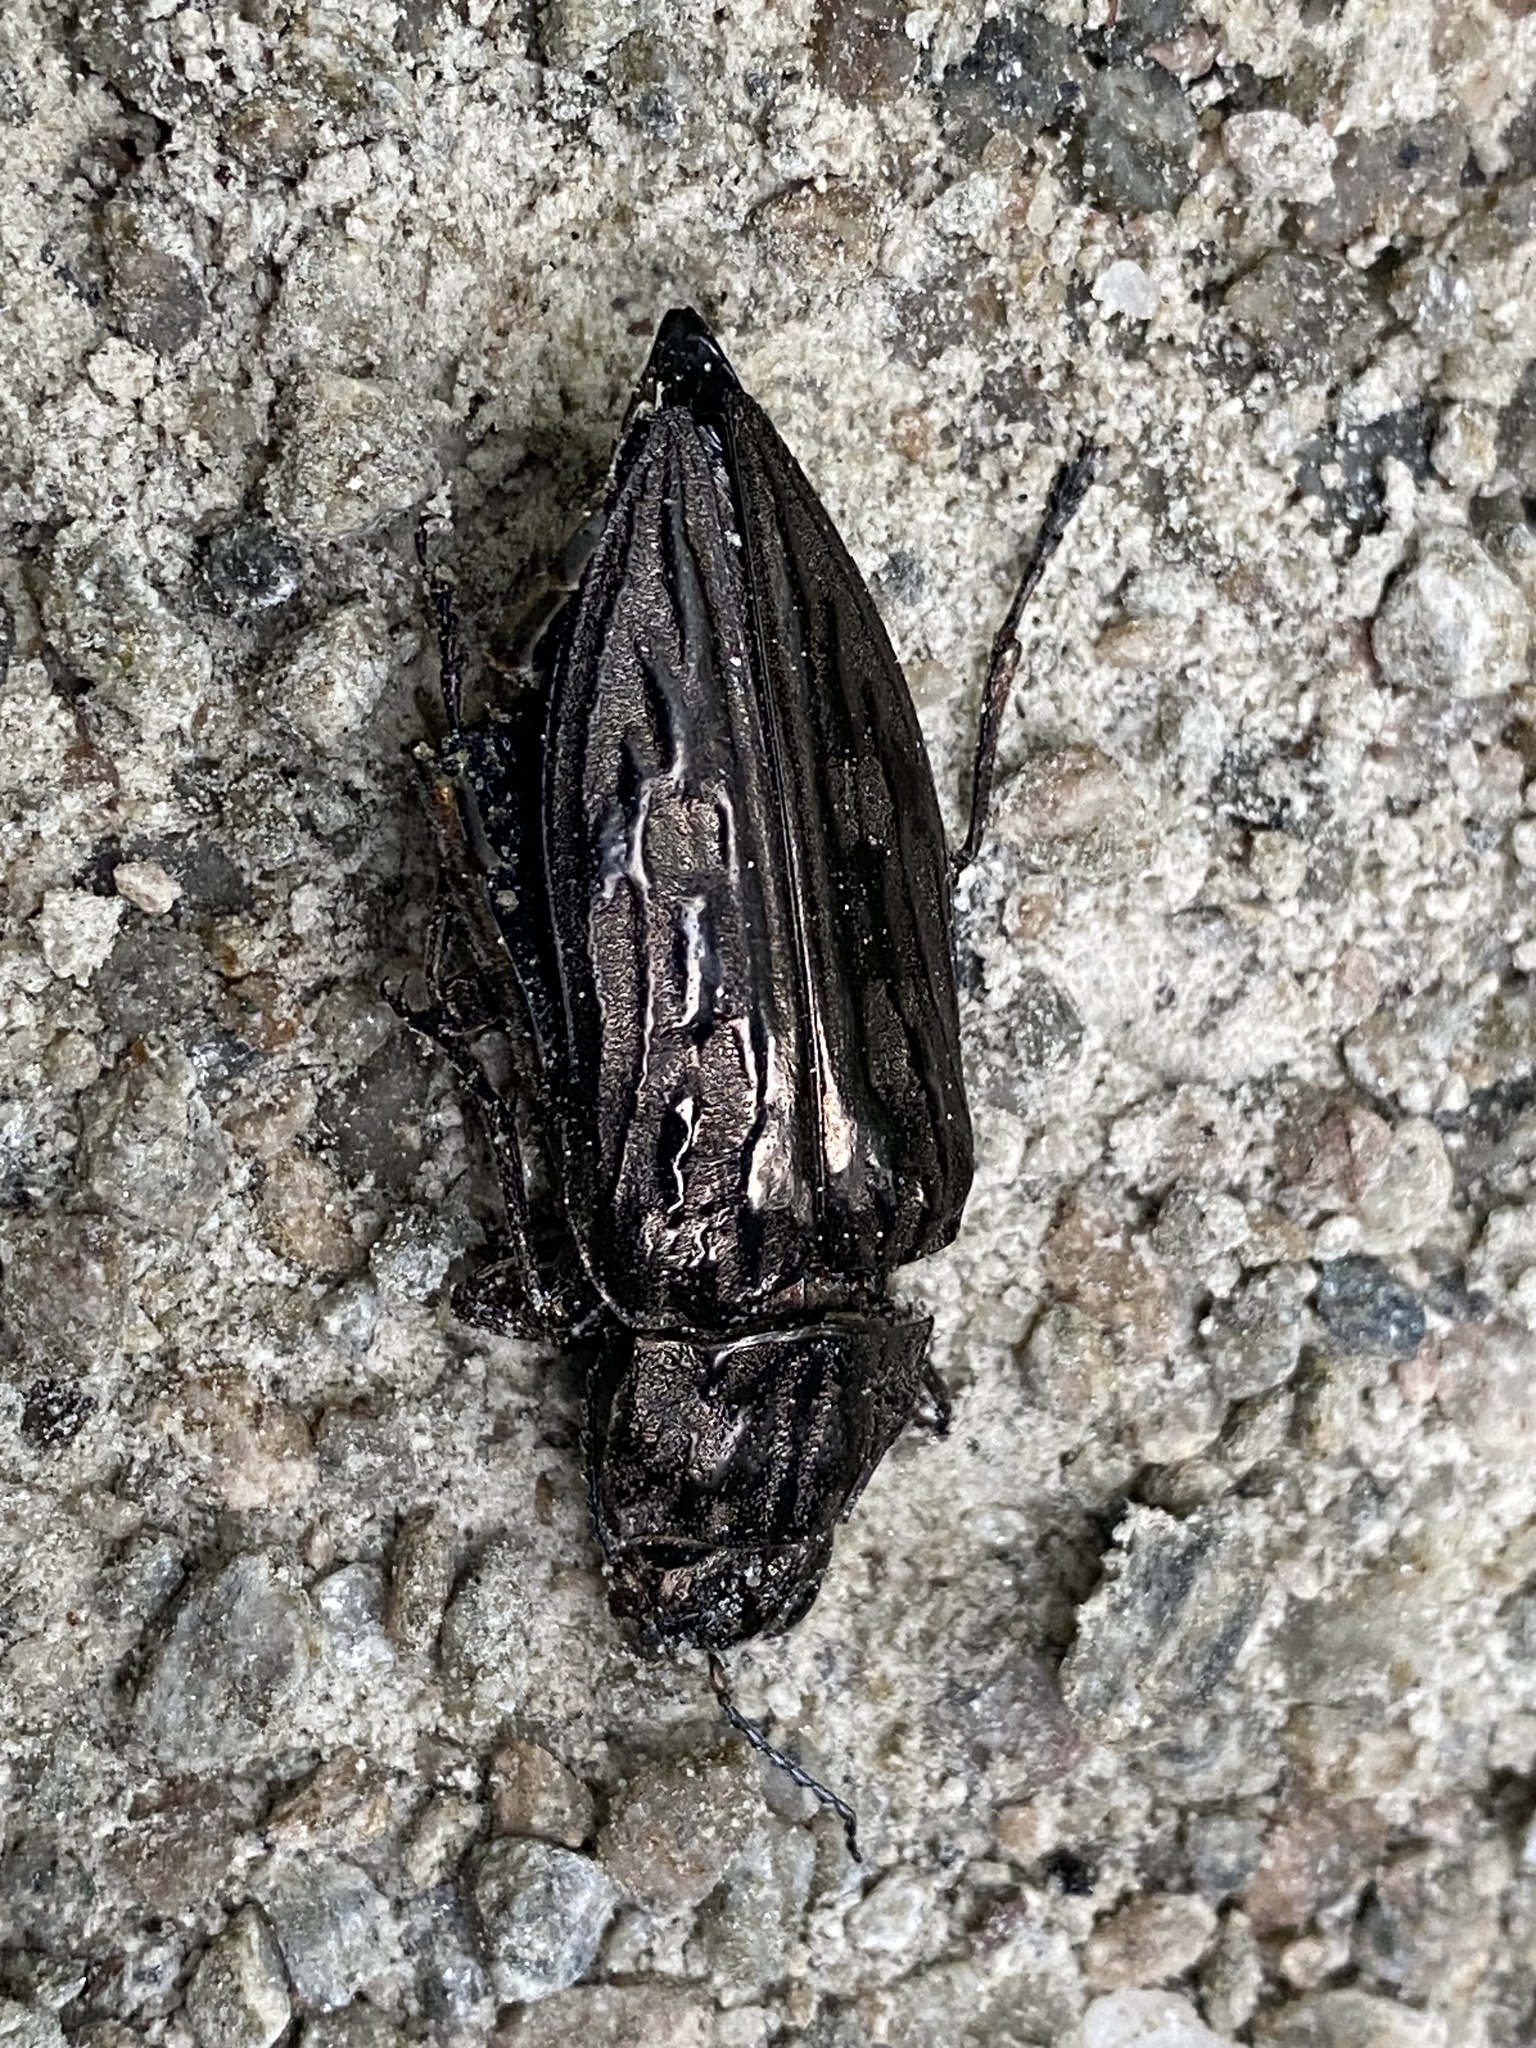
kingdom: Animalia
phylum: Arthropoda
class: Insecta
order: Coleoptera
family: Buprestidae
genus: Chalcophora
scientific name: Chalcophora virginiensis
